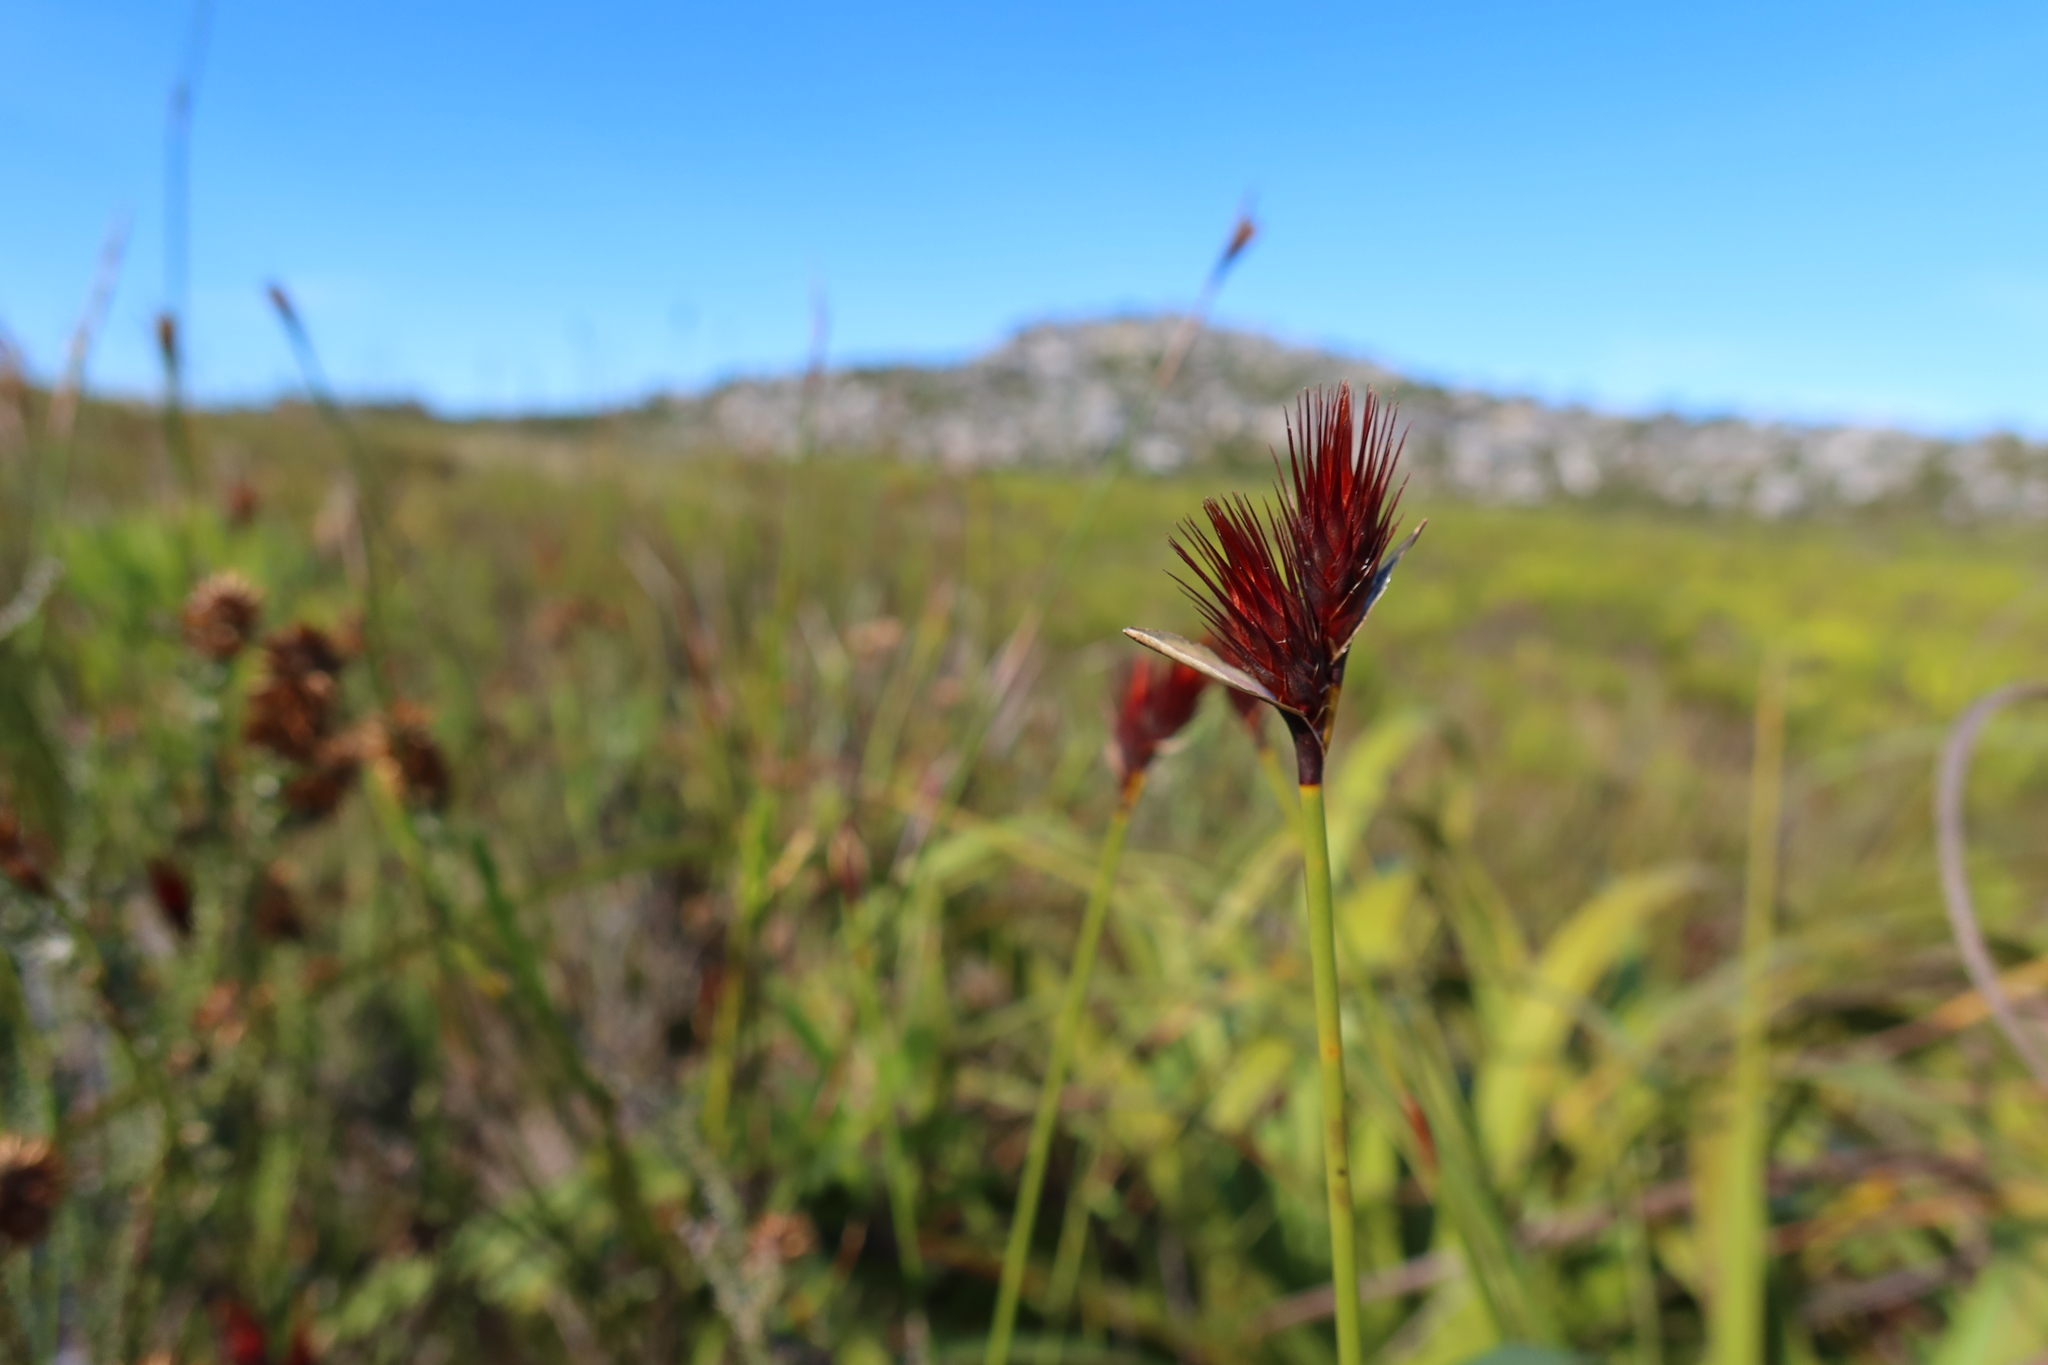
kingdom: Plantae
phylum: Tracheophyta
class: Liliopsida
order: Poales
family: Restionaceae
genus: Hypodiscus
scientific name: Hypodiscus aristatus
